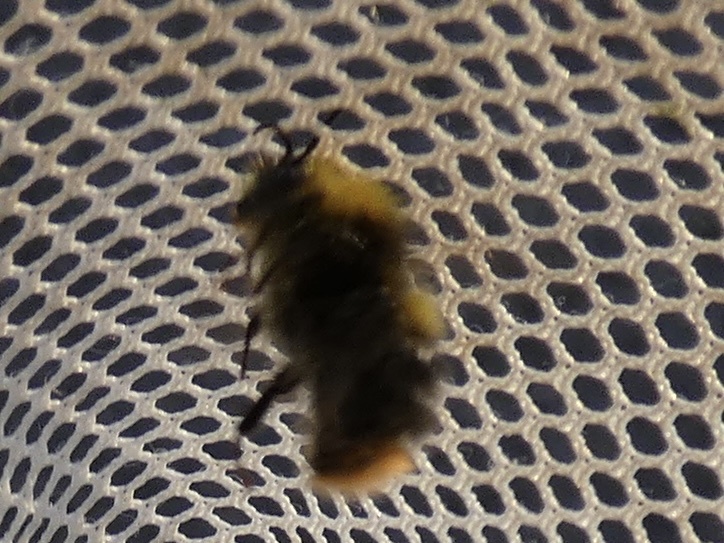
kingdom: Animalia
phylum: Arthropoda
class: Insecta
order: Hymenoptera
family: Apidae
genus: Bombus
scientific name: Bombus pratorum
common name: Early humble-bee
